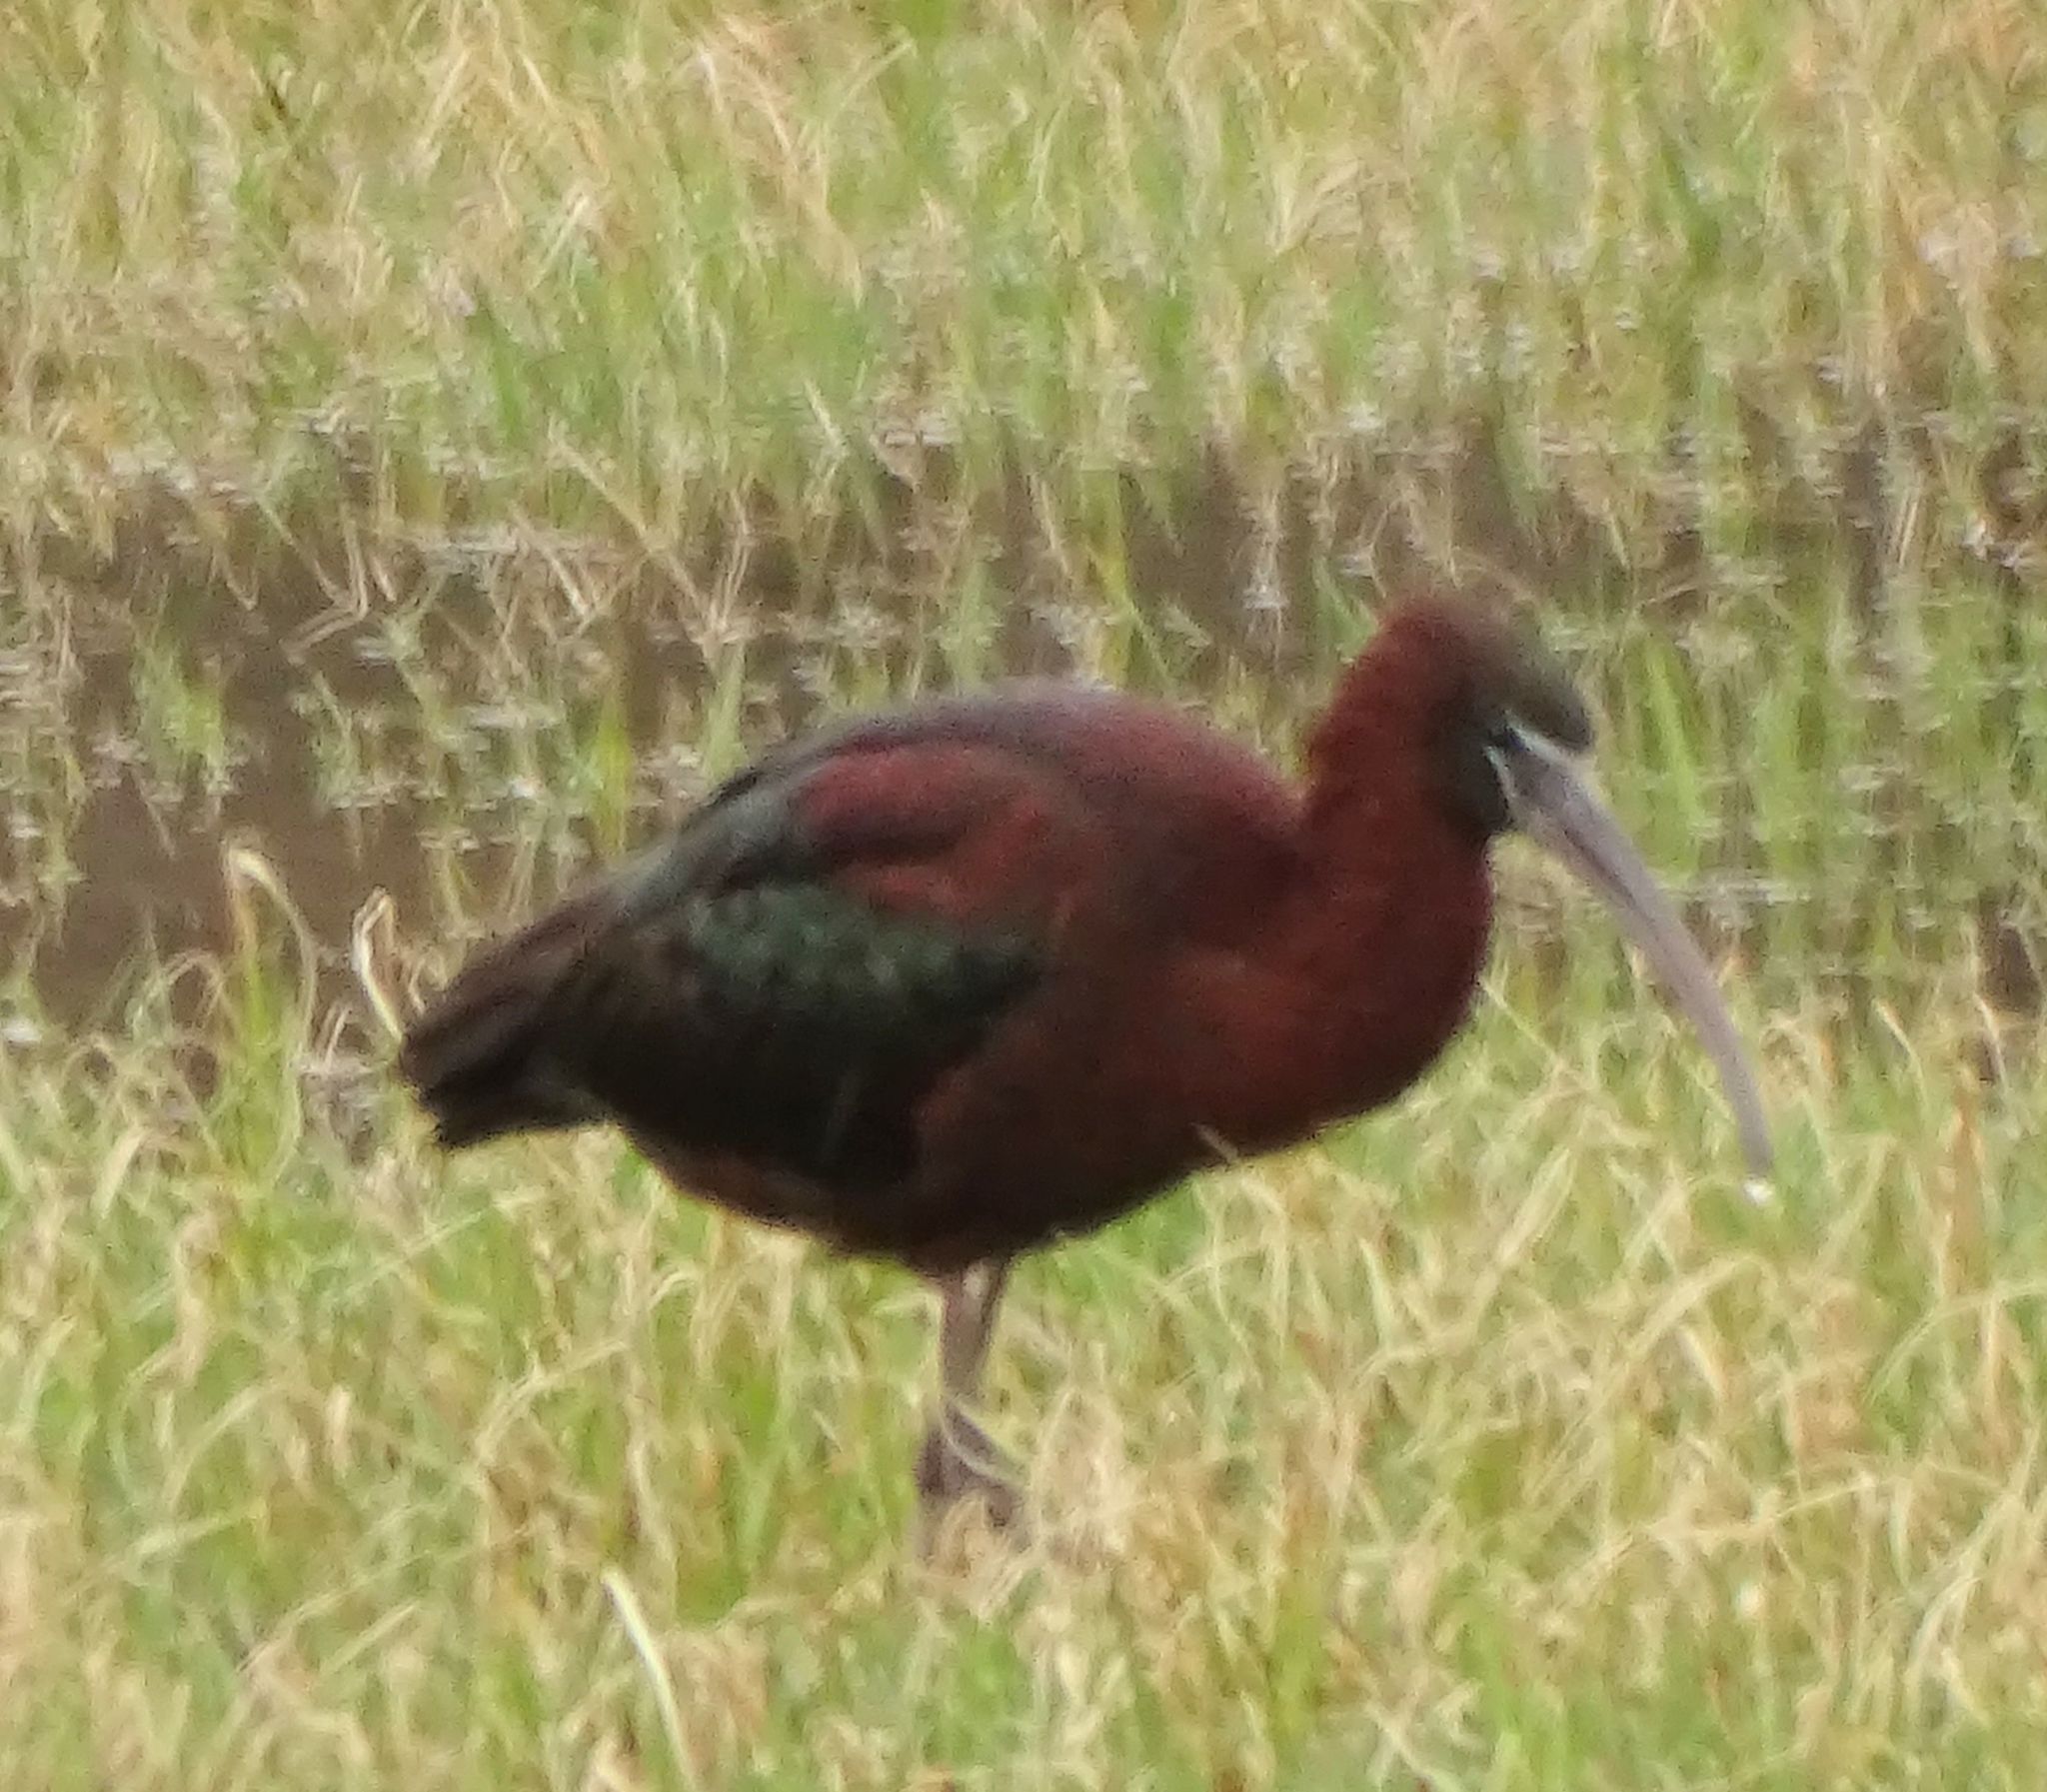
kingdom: Animalia
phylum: Chordata
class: Aves
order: Pelecaniformes
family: Threskiornithidae
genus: Plegadis
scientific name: Plegadis falcinellus
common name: Glossy ibis
